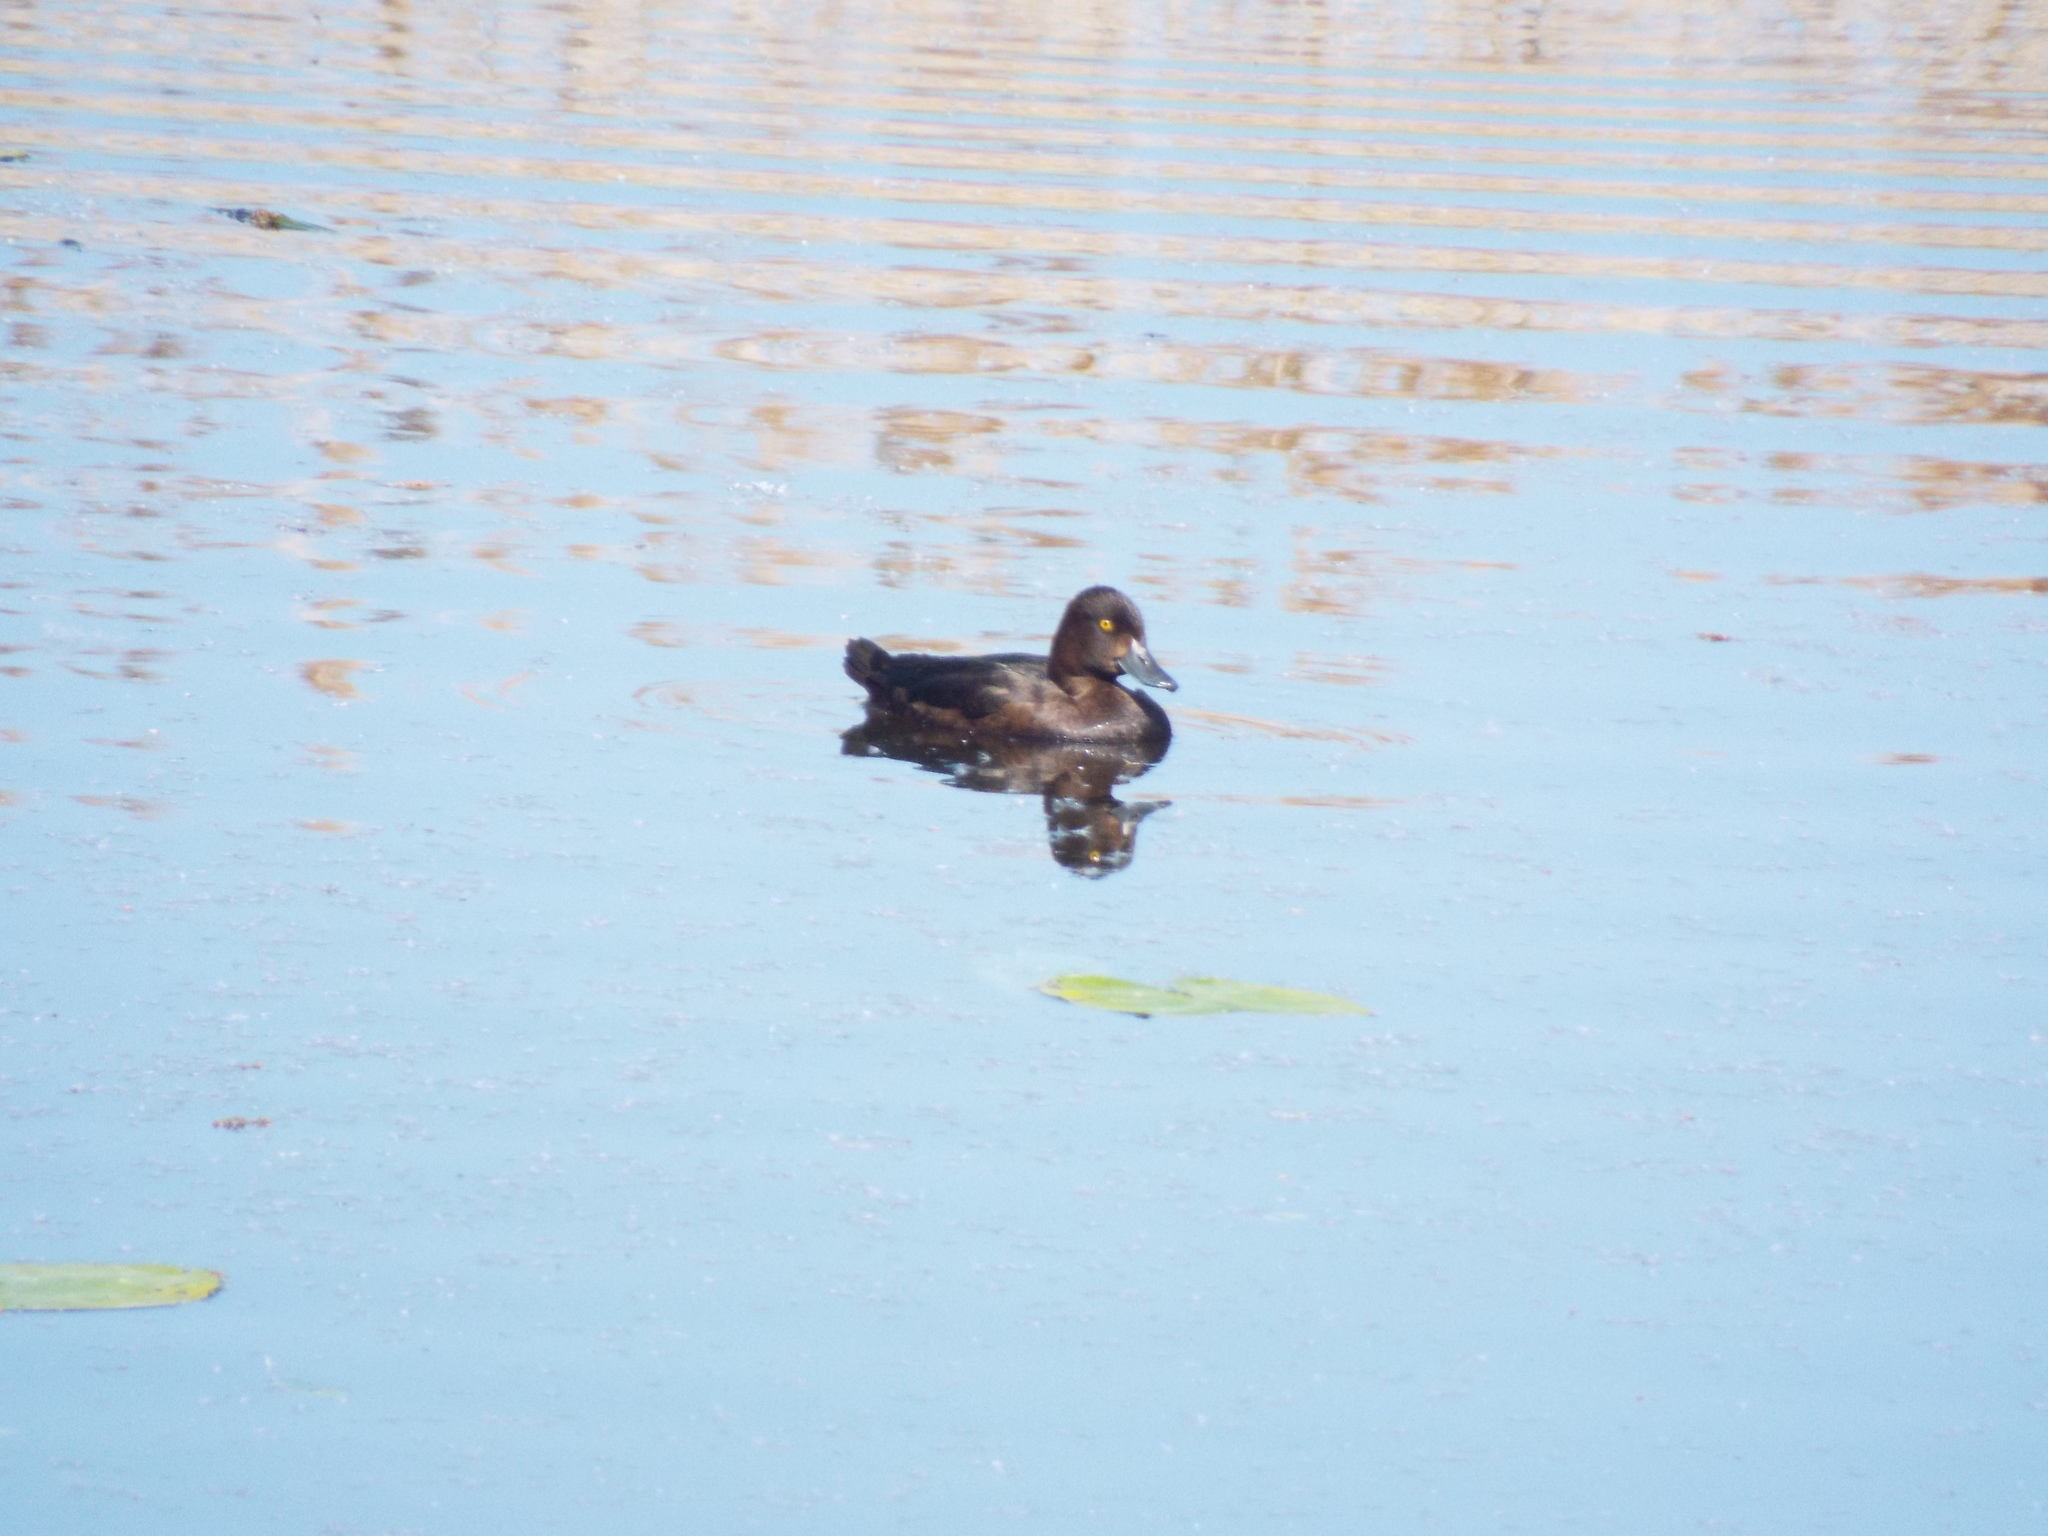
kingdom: Animalia
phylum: Chordata
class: Aves
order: Anseriformes
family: Anatidae
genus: Aythya
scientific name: Aythya fuligula
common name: Tufted duck
